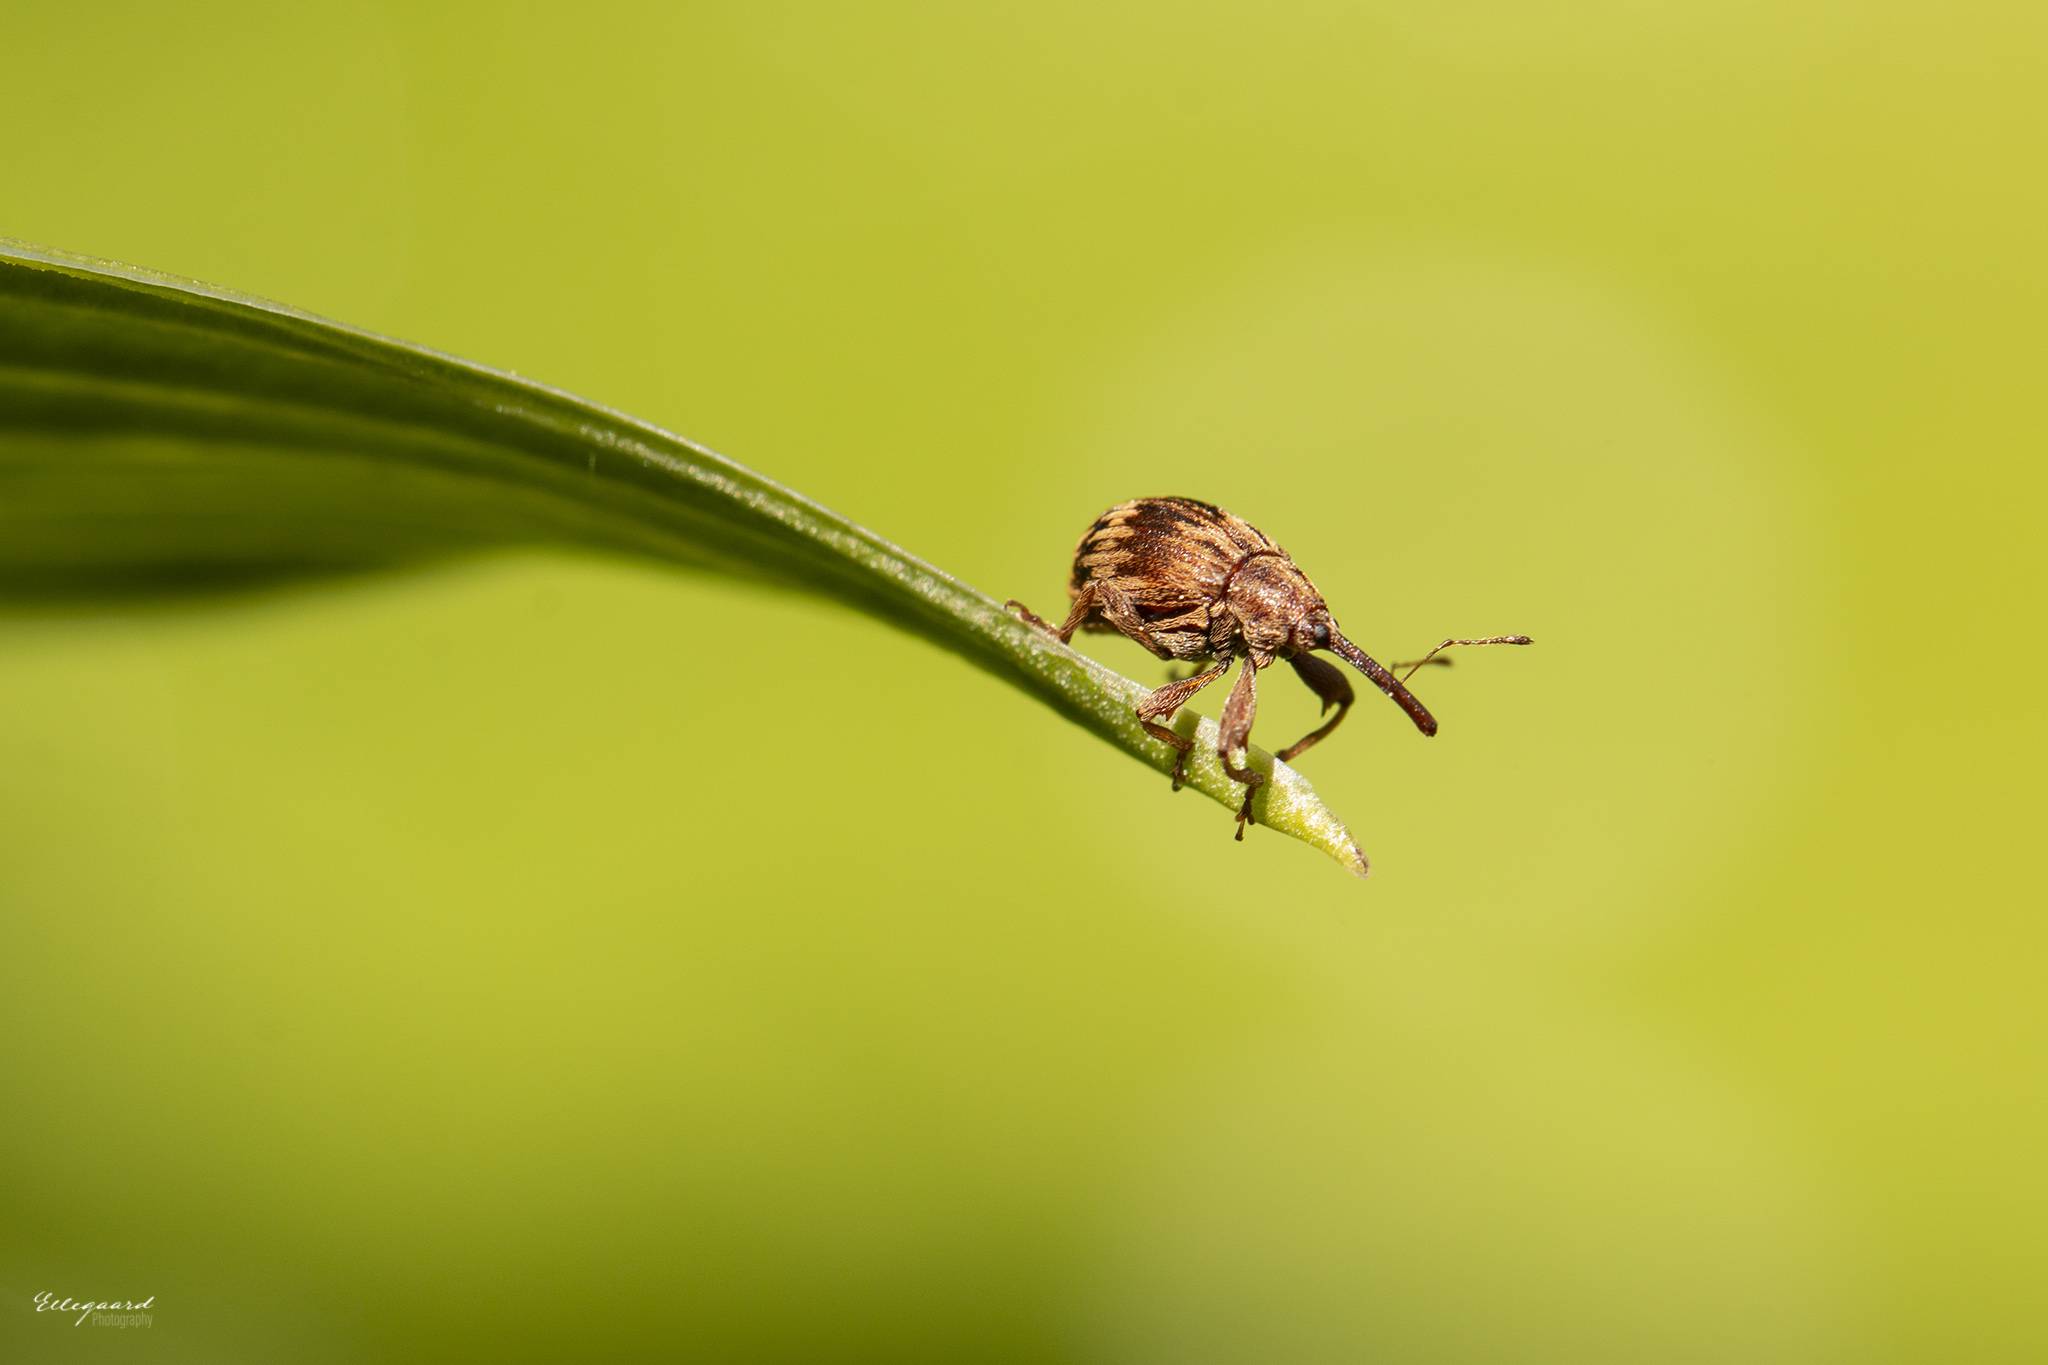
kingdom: Animalia
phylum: Arthropoda
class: Insecta
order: Coleoptera
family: Curculionidae
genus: Anthonomus
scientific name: Anthonomus rectirostris
